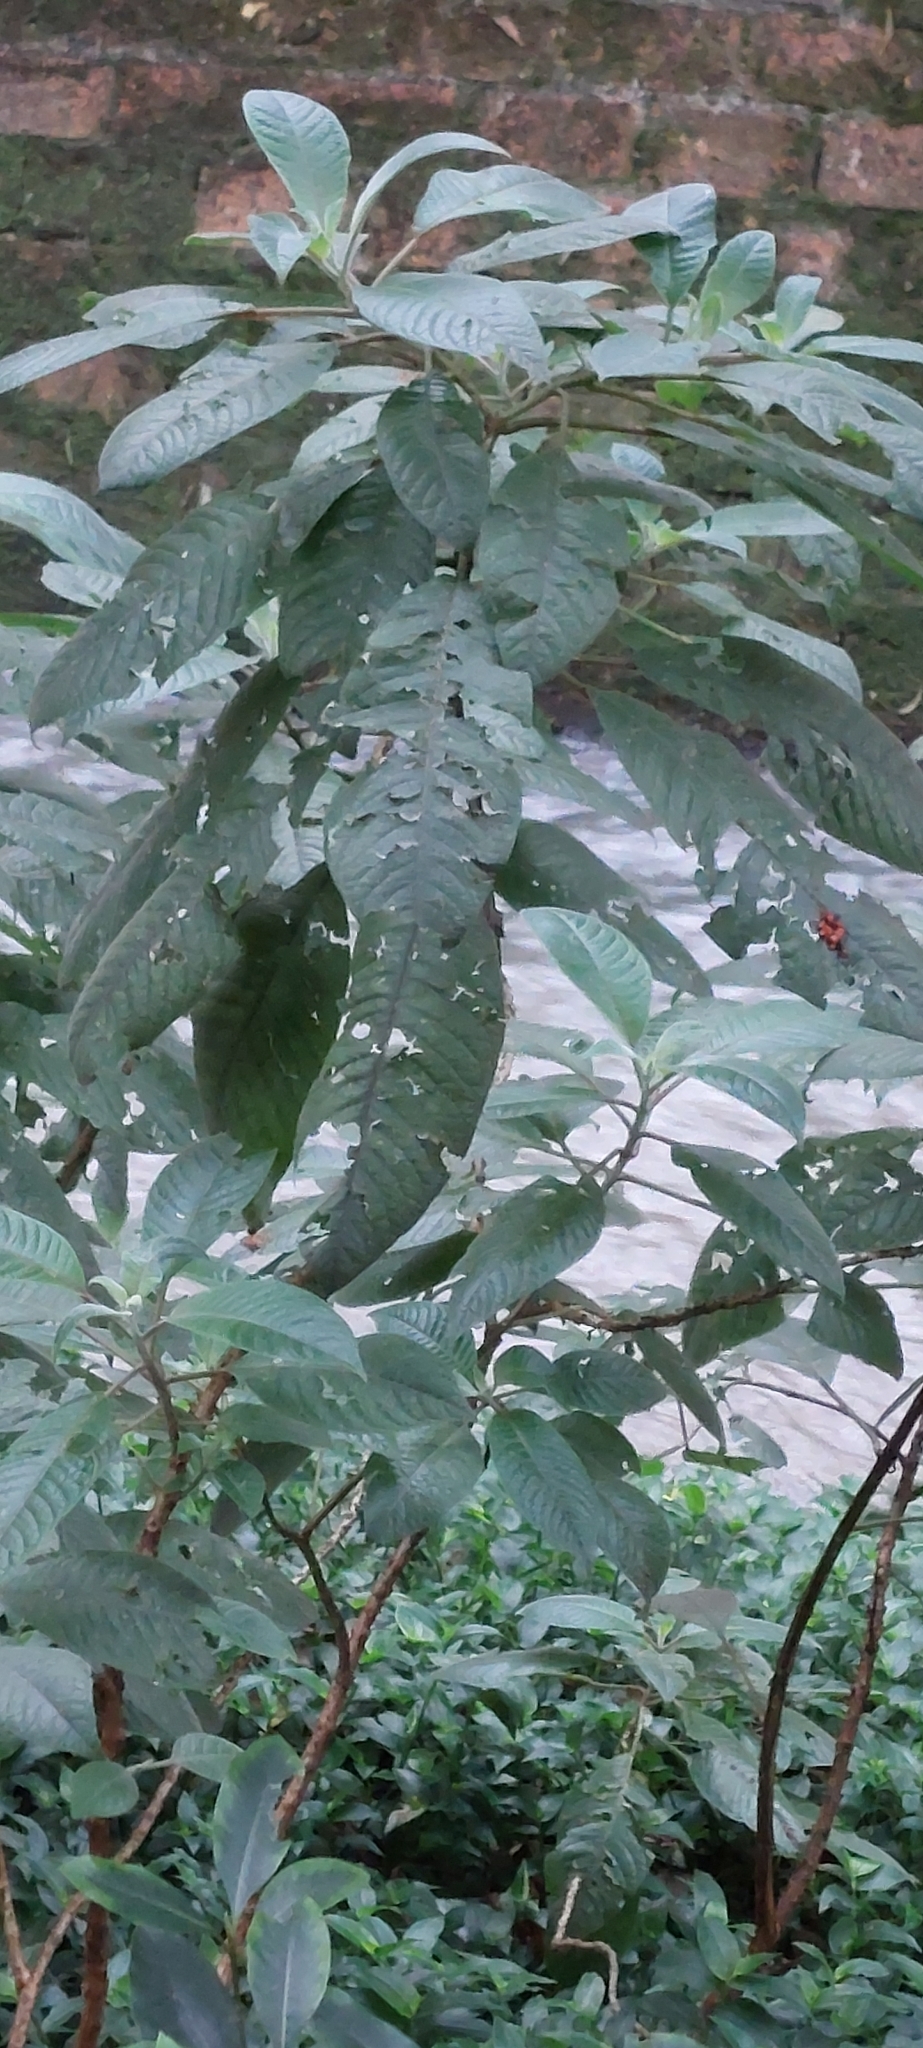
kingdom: Plantae
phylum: Tracheophyta
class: Magnoliopsida
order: Myrtales
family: Onagraceae
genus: Fuchsia
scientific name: Fuchsia boliviana
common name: Bolivian fuchsia
